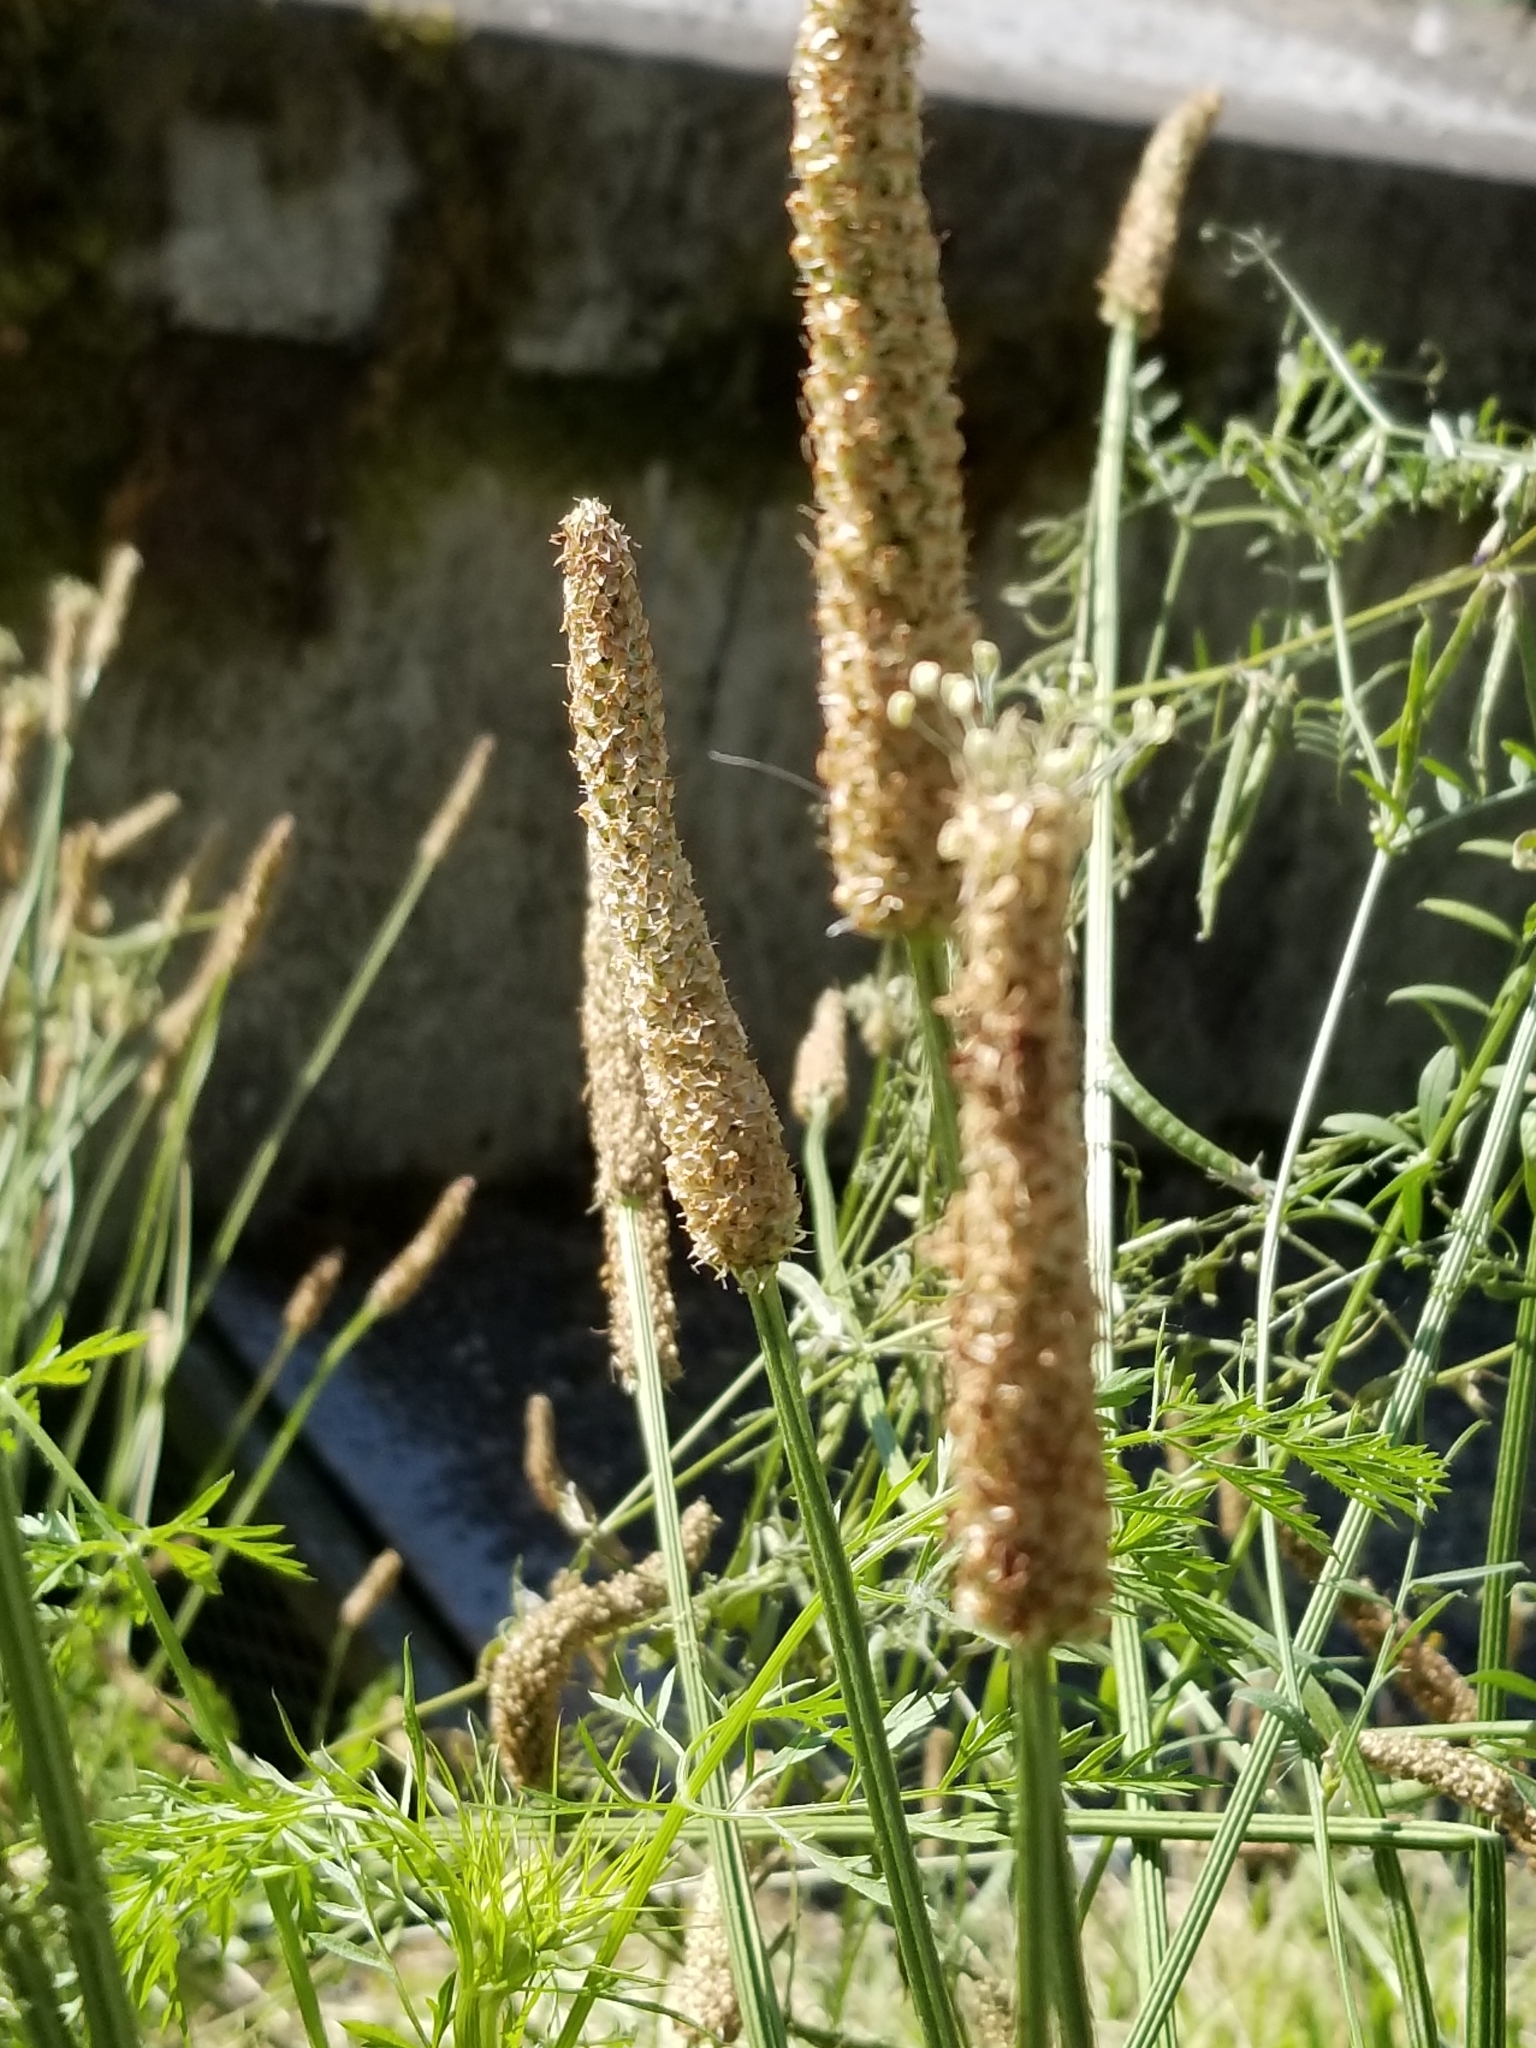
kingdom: Plantae
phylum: Tracheophyta
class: Magnoliopsida
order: Lamiales
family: Plantaginaceae
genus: Plantago
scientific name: Plantago lanceolata
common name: Ribwort plantain
